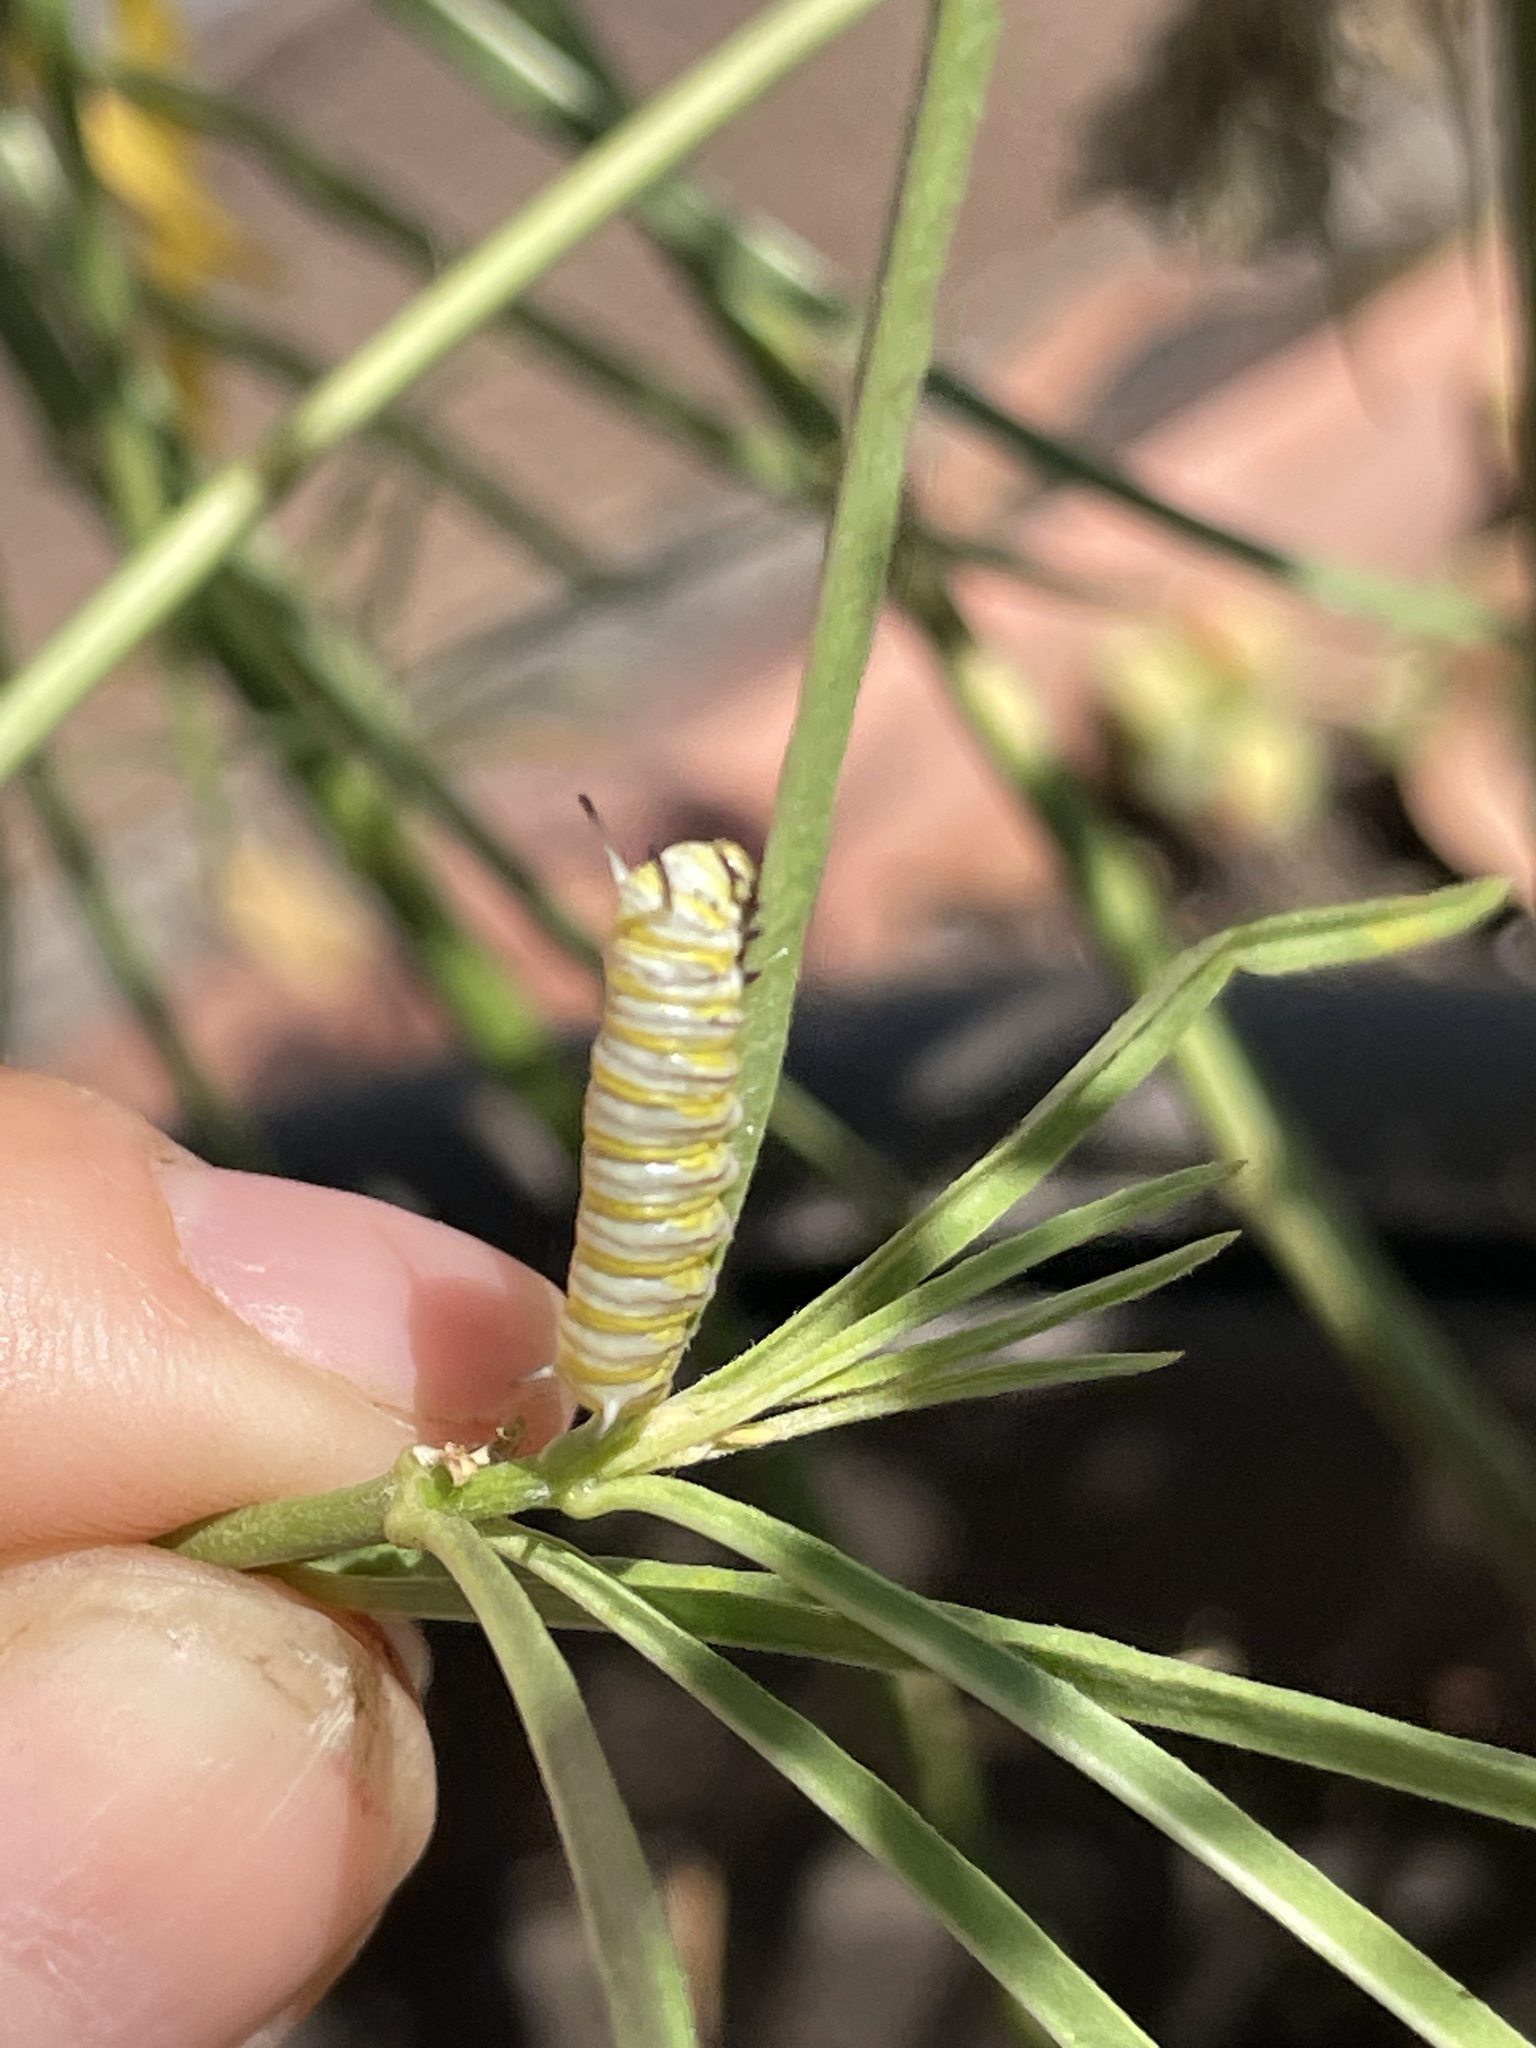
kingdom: Animalia
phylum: Arthropoda
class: Insecta
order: Lepidoptera
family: Nymphalidae
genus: Danaus
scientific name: Danaus plexippus
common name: Monarch
